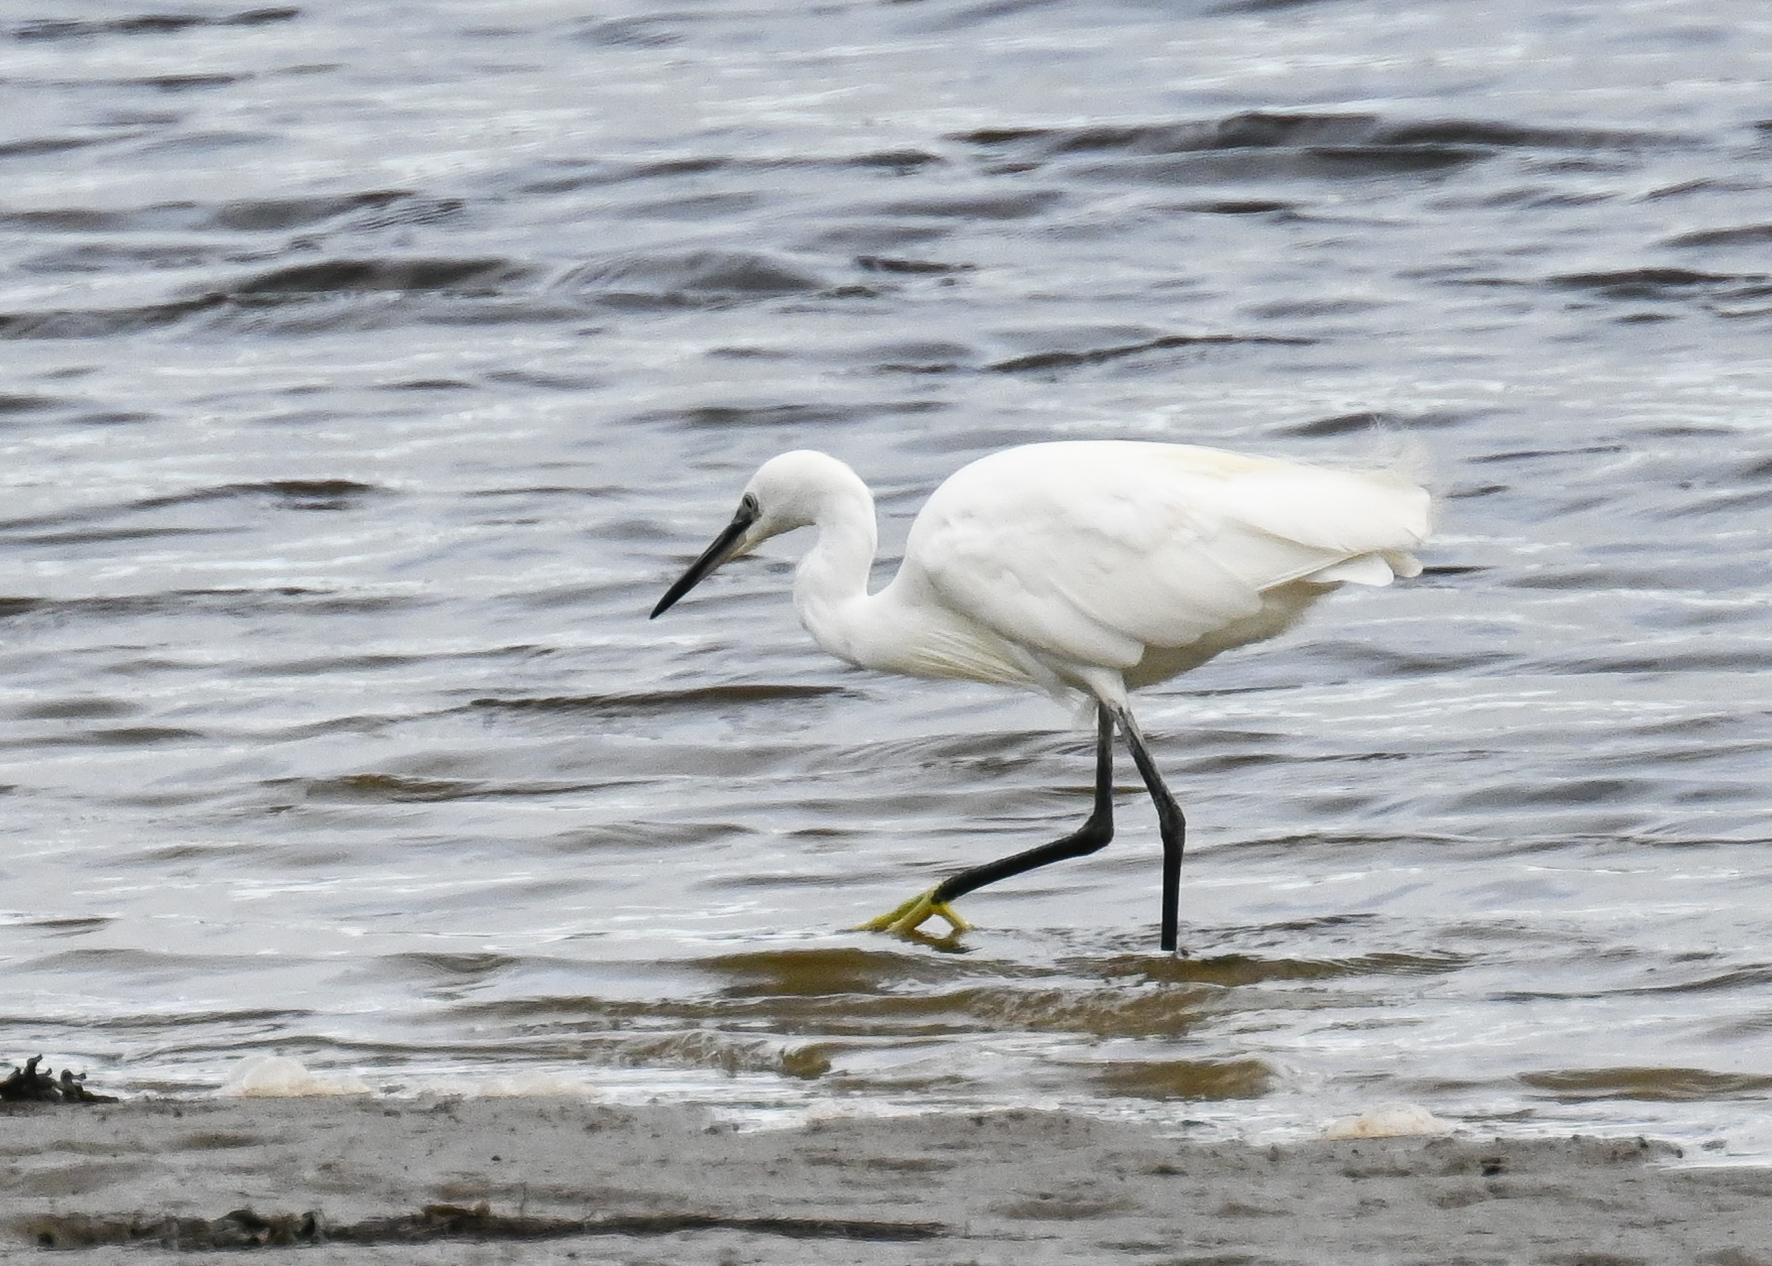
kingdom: Animalia
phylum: Chordata
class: Aves
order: Pelecaniformes
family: Ardeidae
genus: Egretta
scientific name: Egretta garzetta
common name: Little egret
